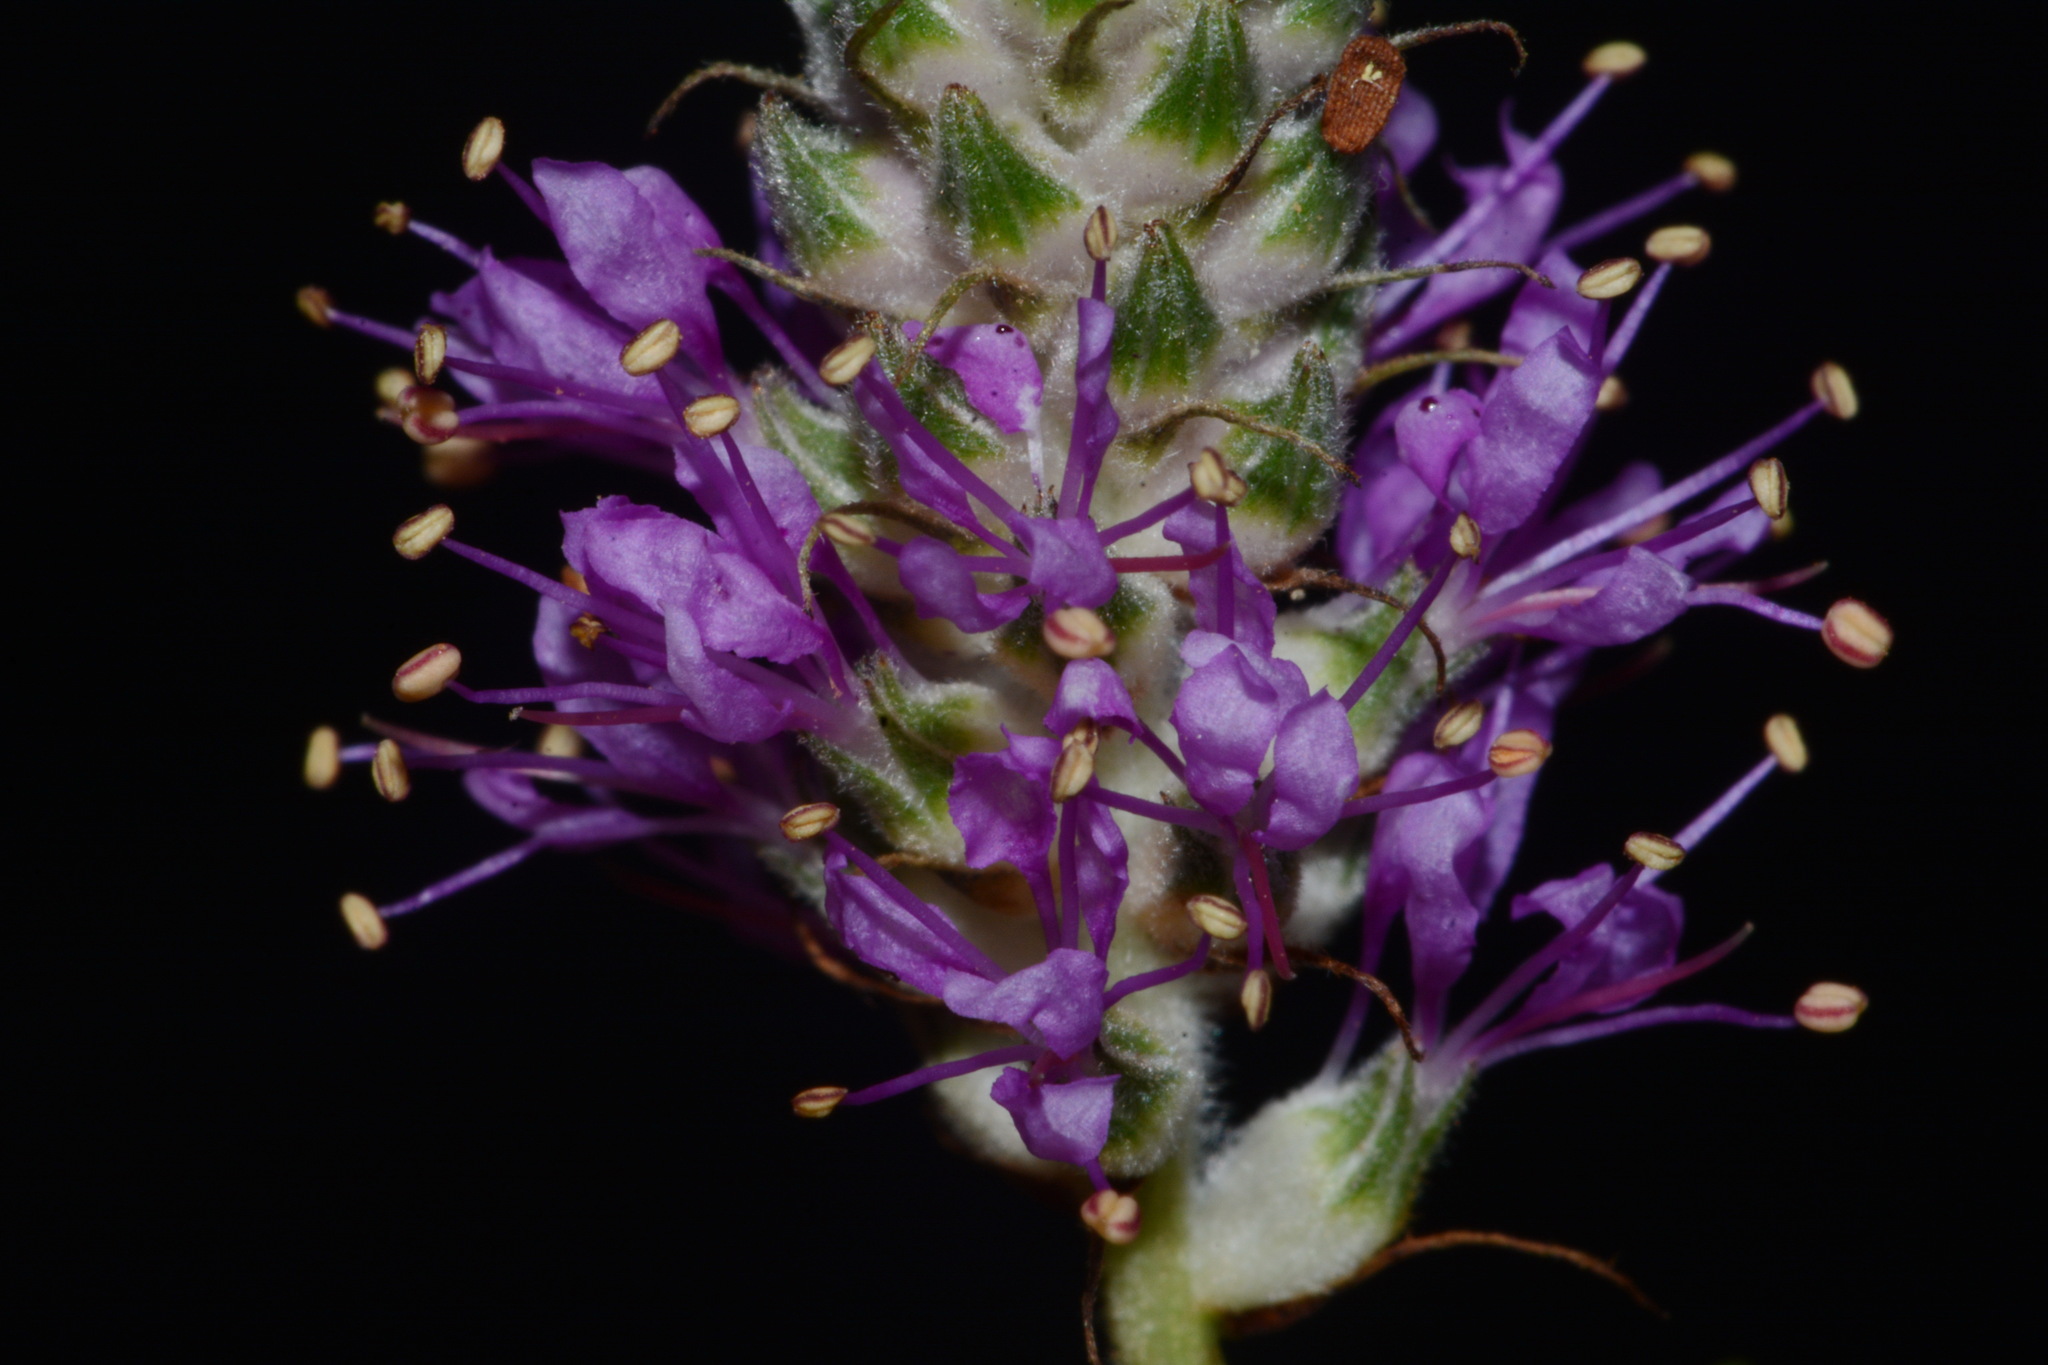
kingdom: Plantae
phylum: Tracheophyta
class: Magnoliopsida
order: Fabales
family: Fabaceae
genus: Dalea
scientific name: Dalea gattingeri
